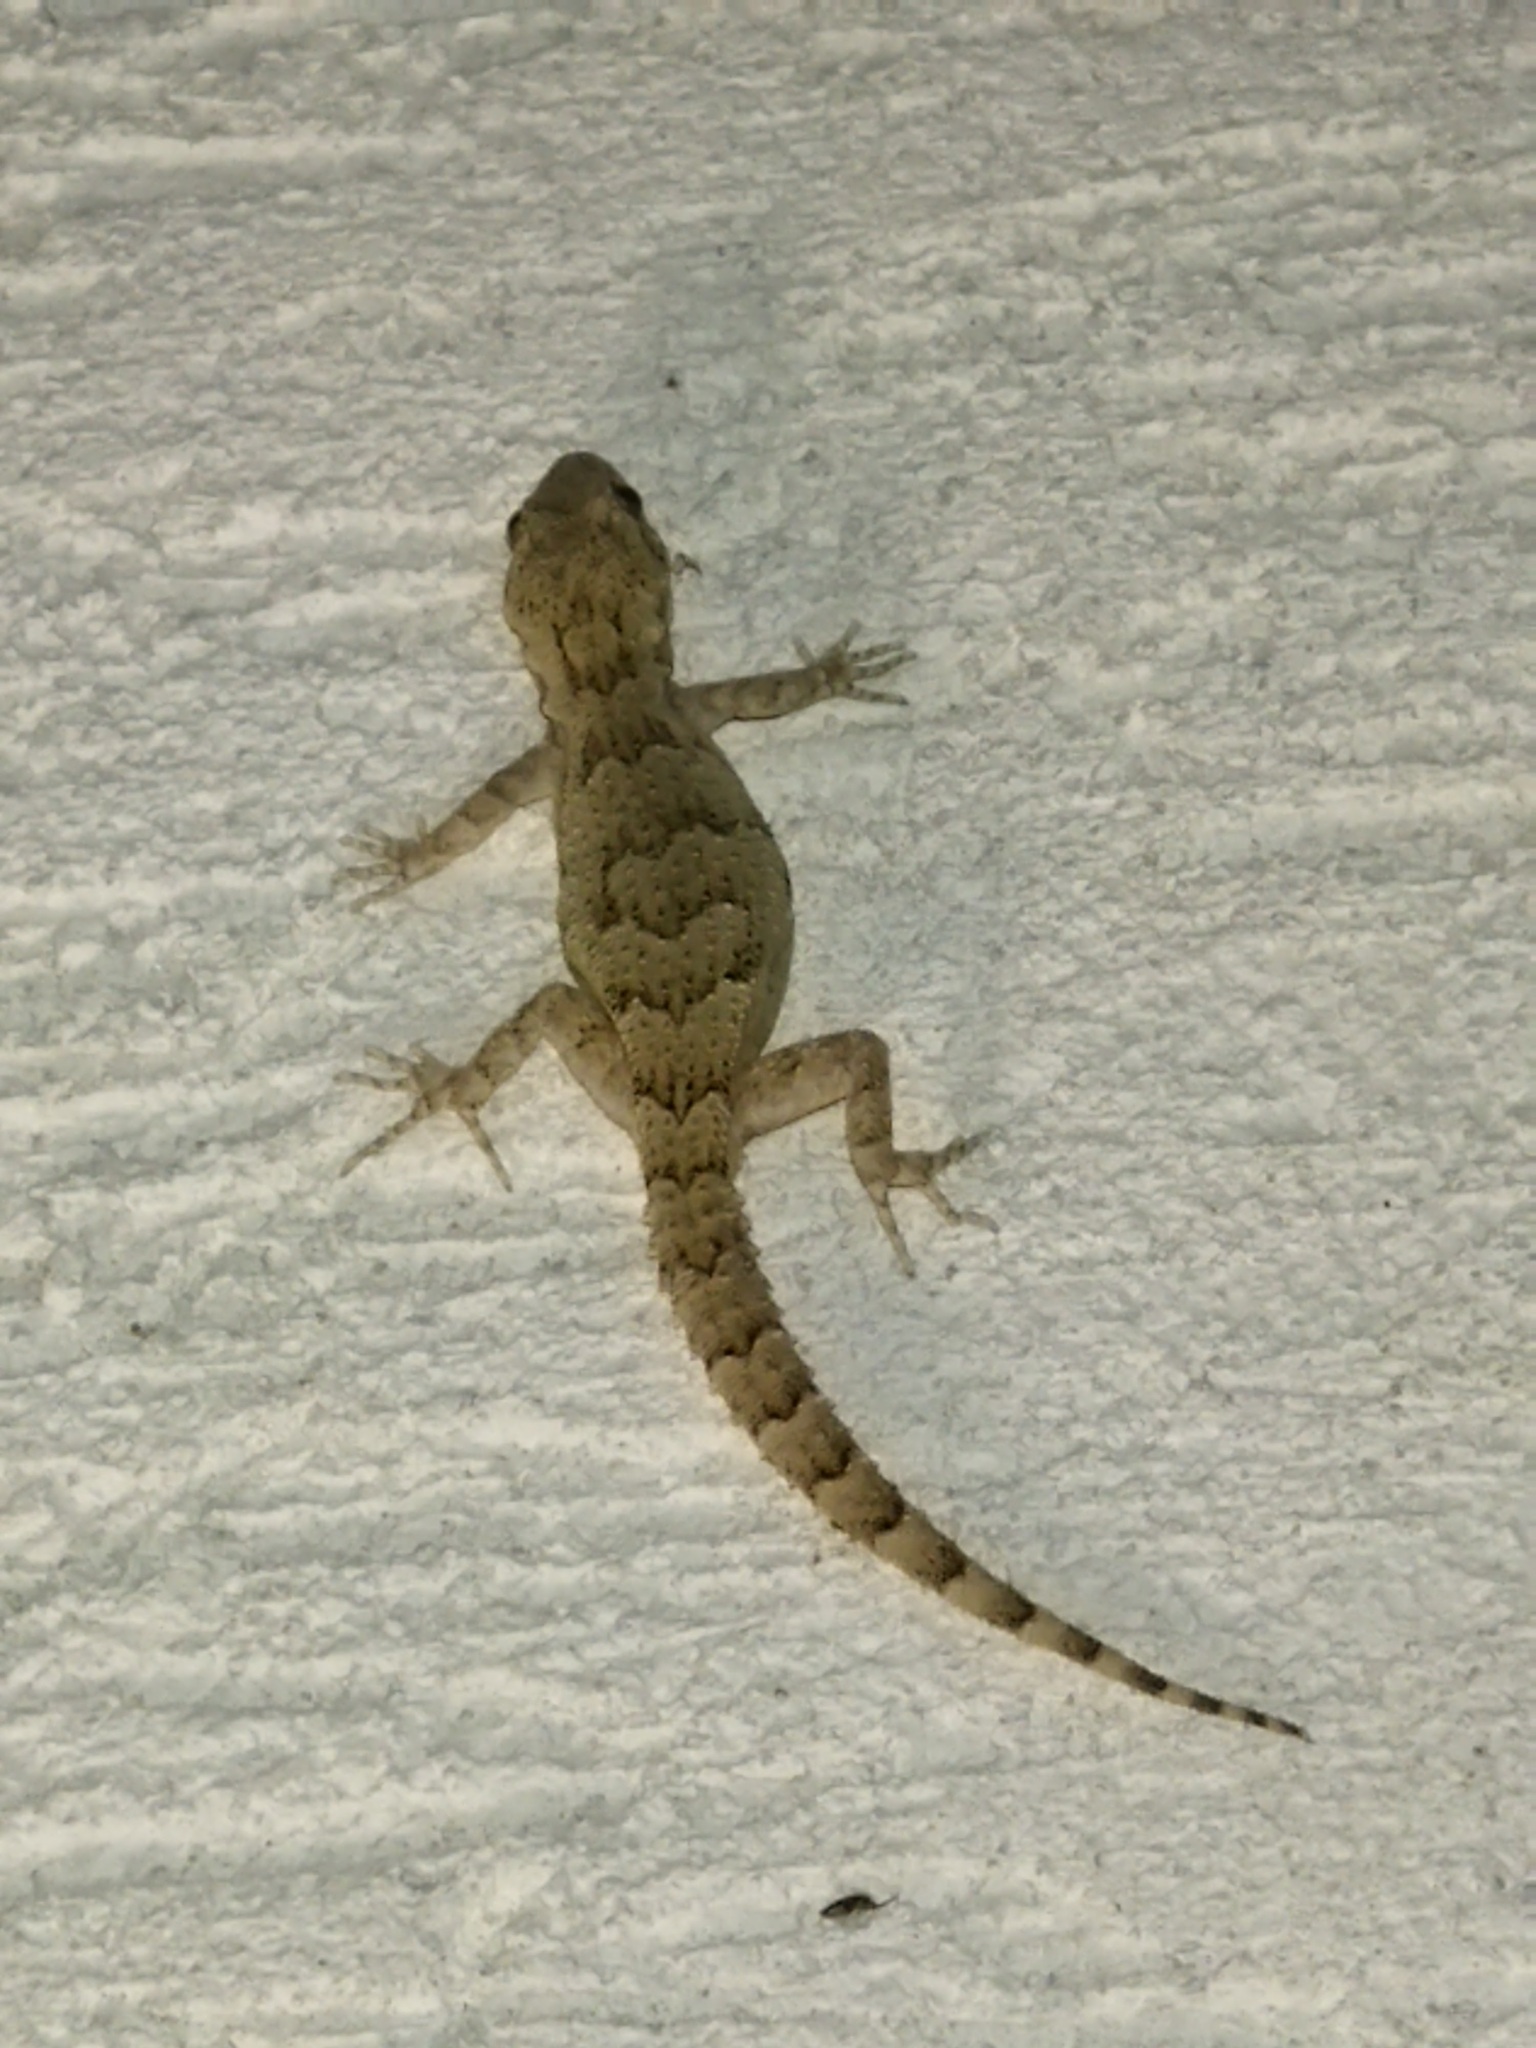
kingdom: Animalia
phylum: Chordata
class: Squamata
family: Gekkonidae
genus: Mediodactylus
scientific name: Mediodactylus kotschyi
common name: Kotschy's gecko
